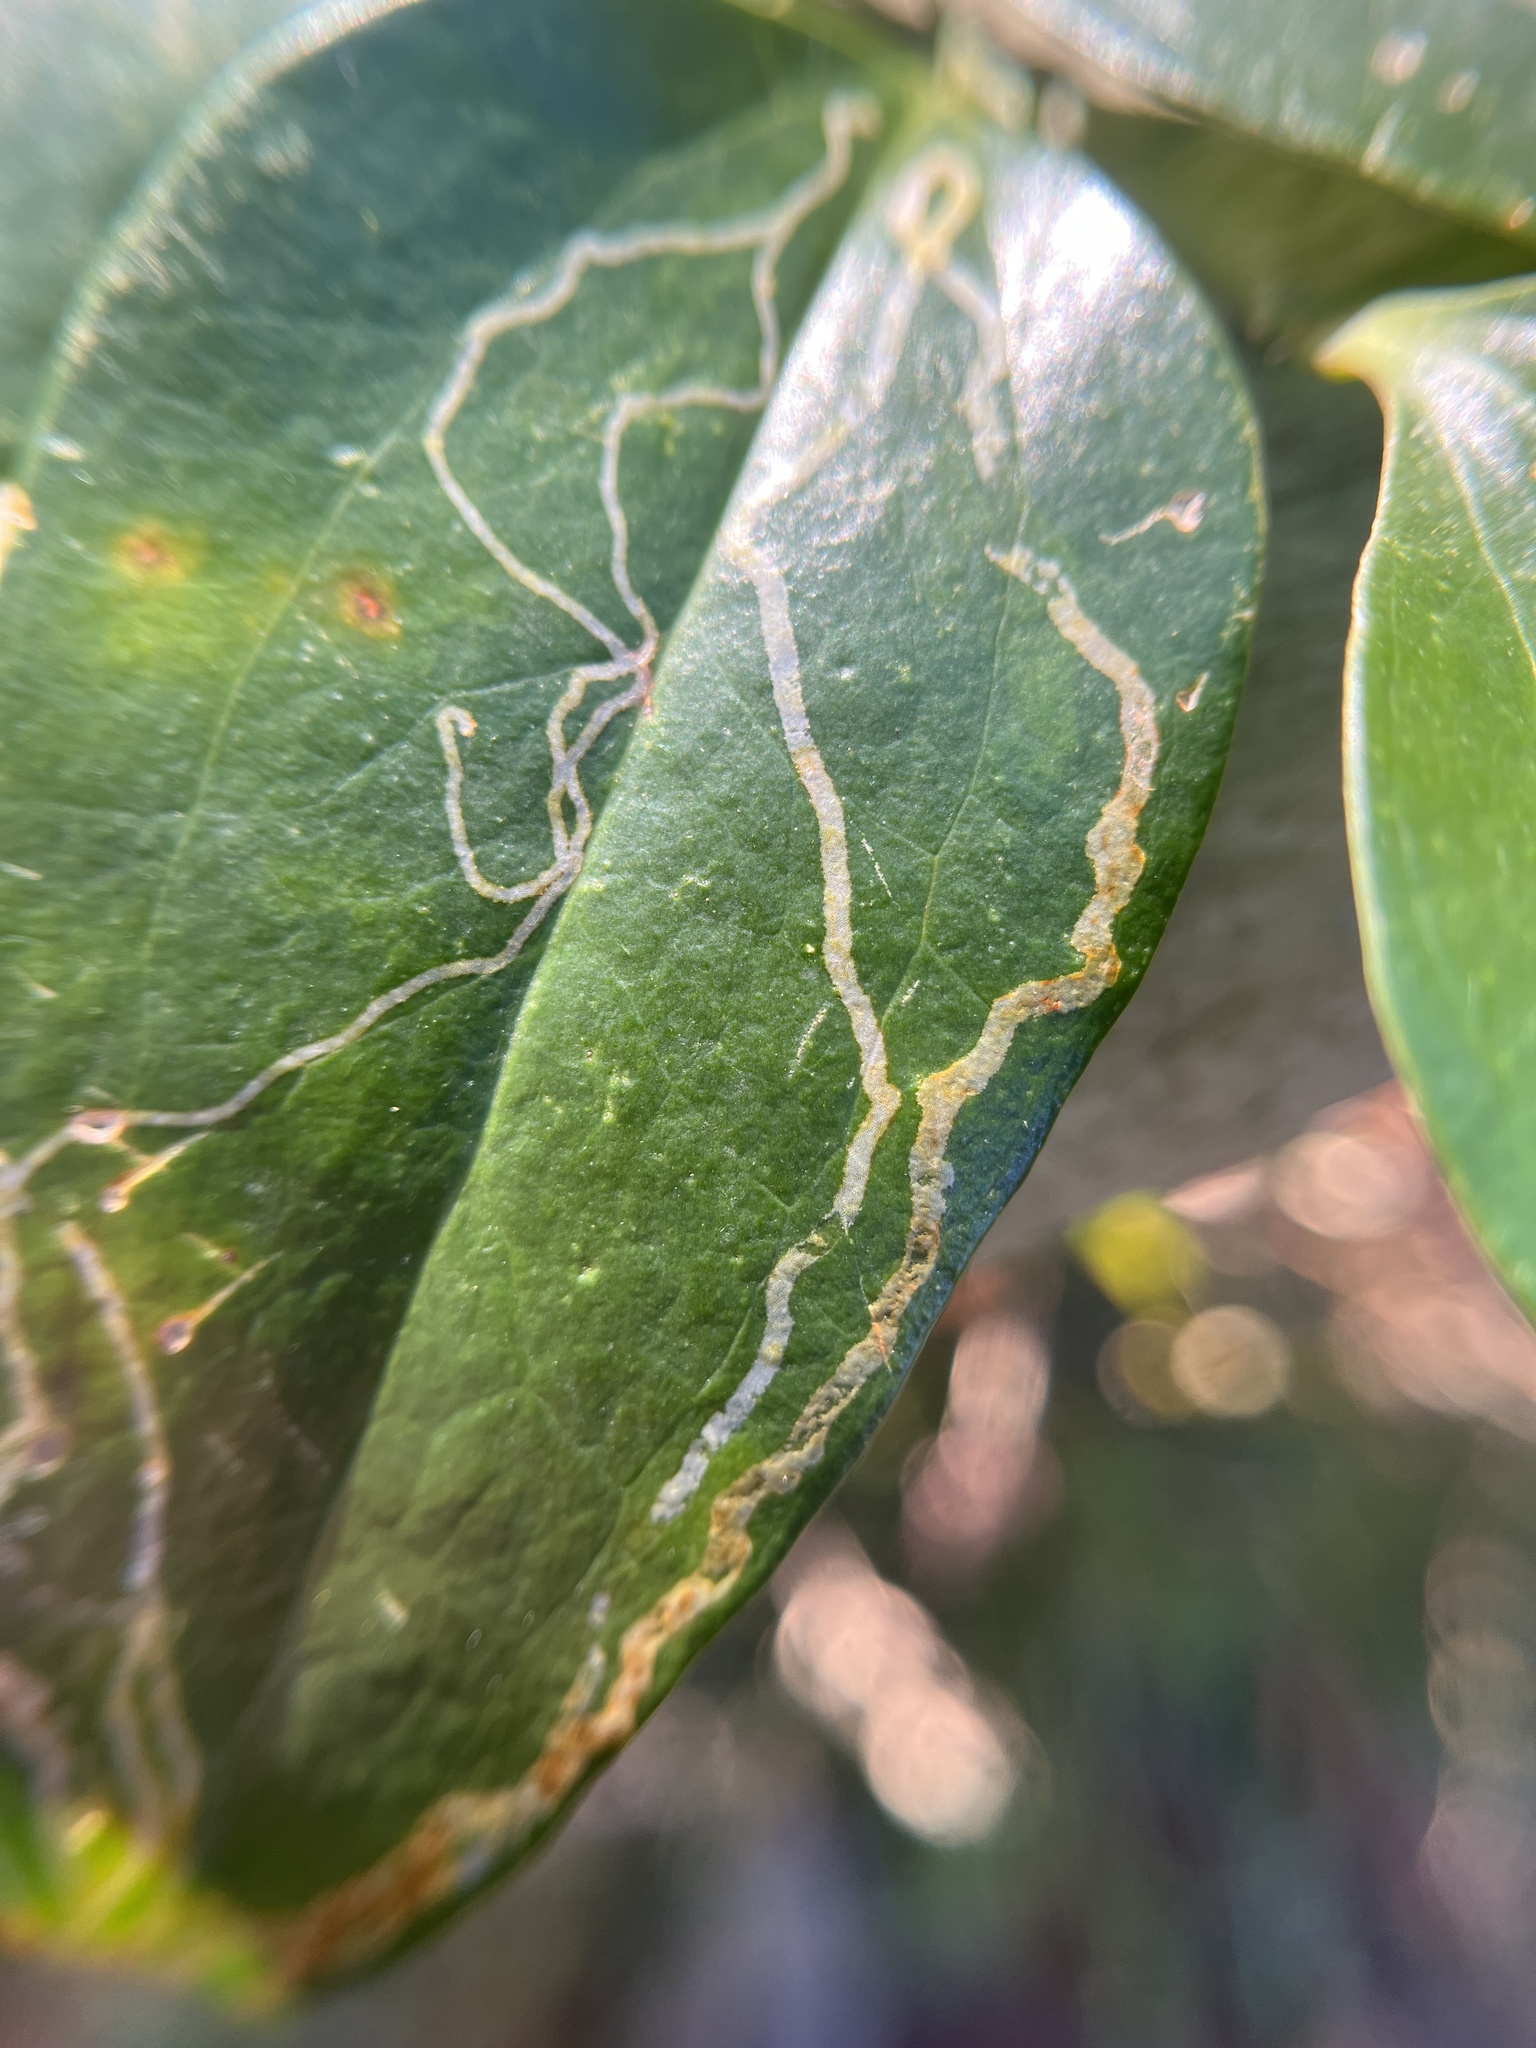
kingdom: Animalia
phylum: Arthropoda
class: Insecta
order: Lepidoptera
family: Gracillariidae
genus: Marmara
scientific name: Marmara smilacisella
